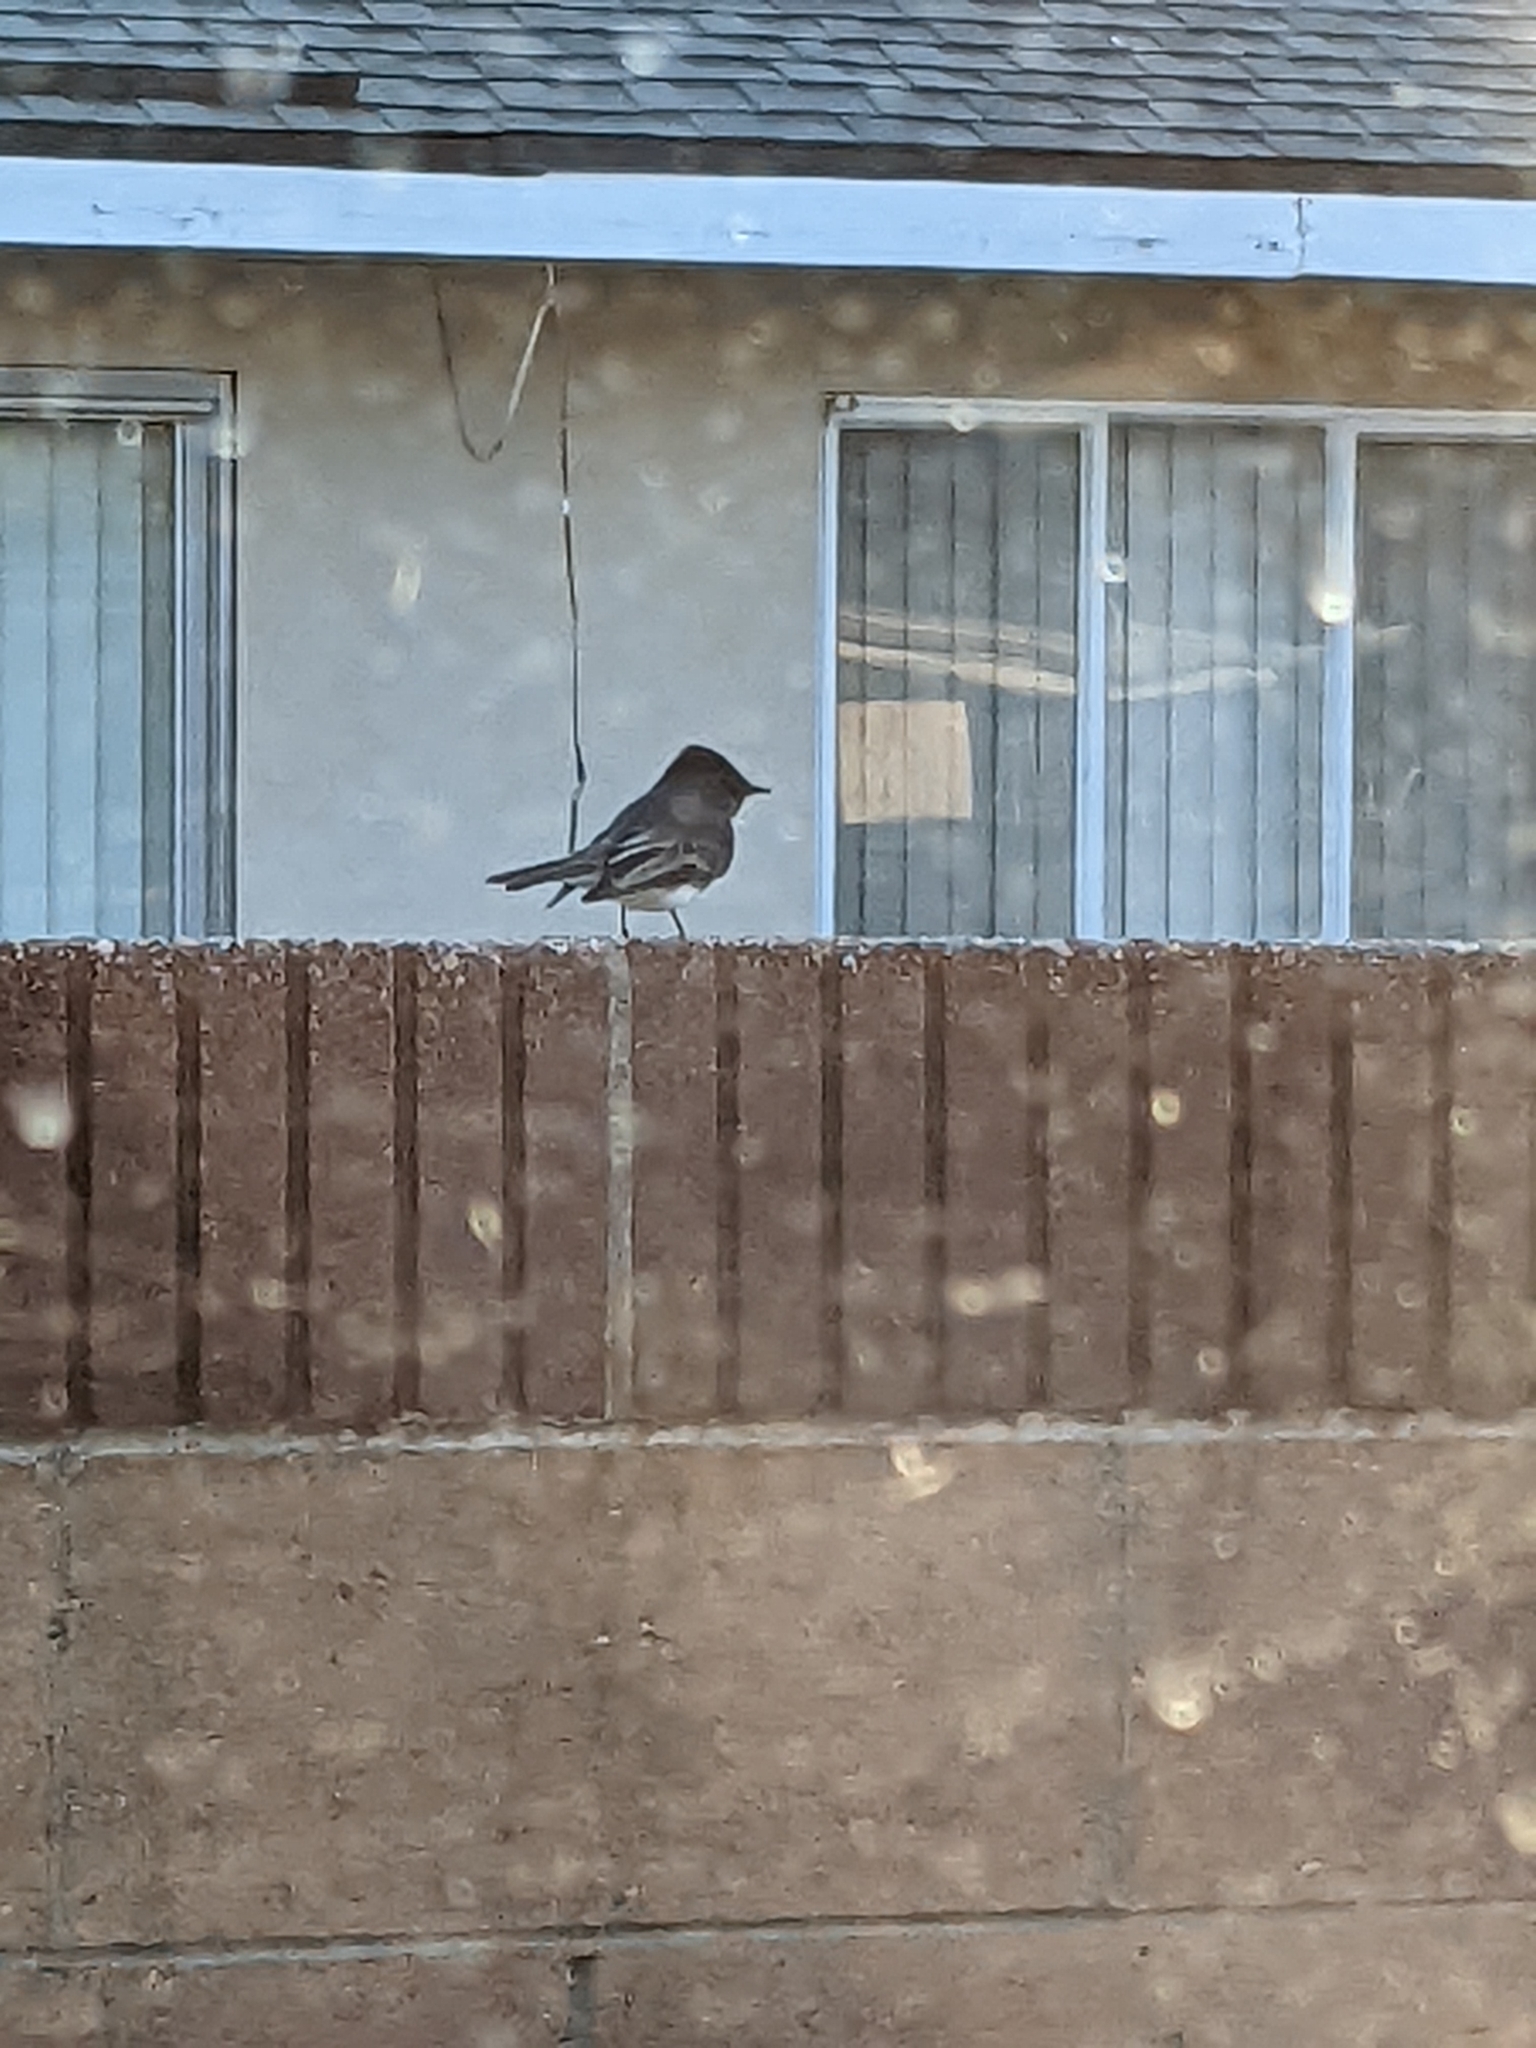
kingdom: Animalia
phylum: Chordata
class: Aves
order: Passeriformes
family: Tyrannidae
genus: Sayornis
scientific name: Sayornis nigricans
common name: Black phoebe
